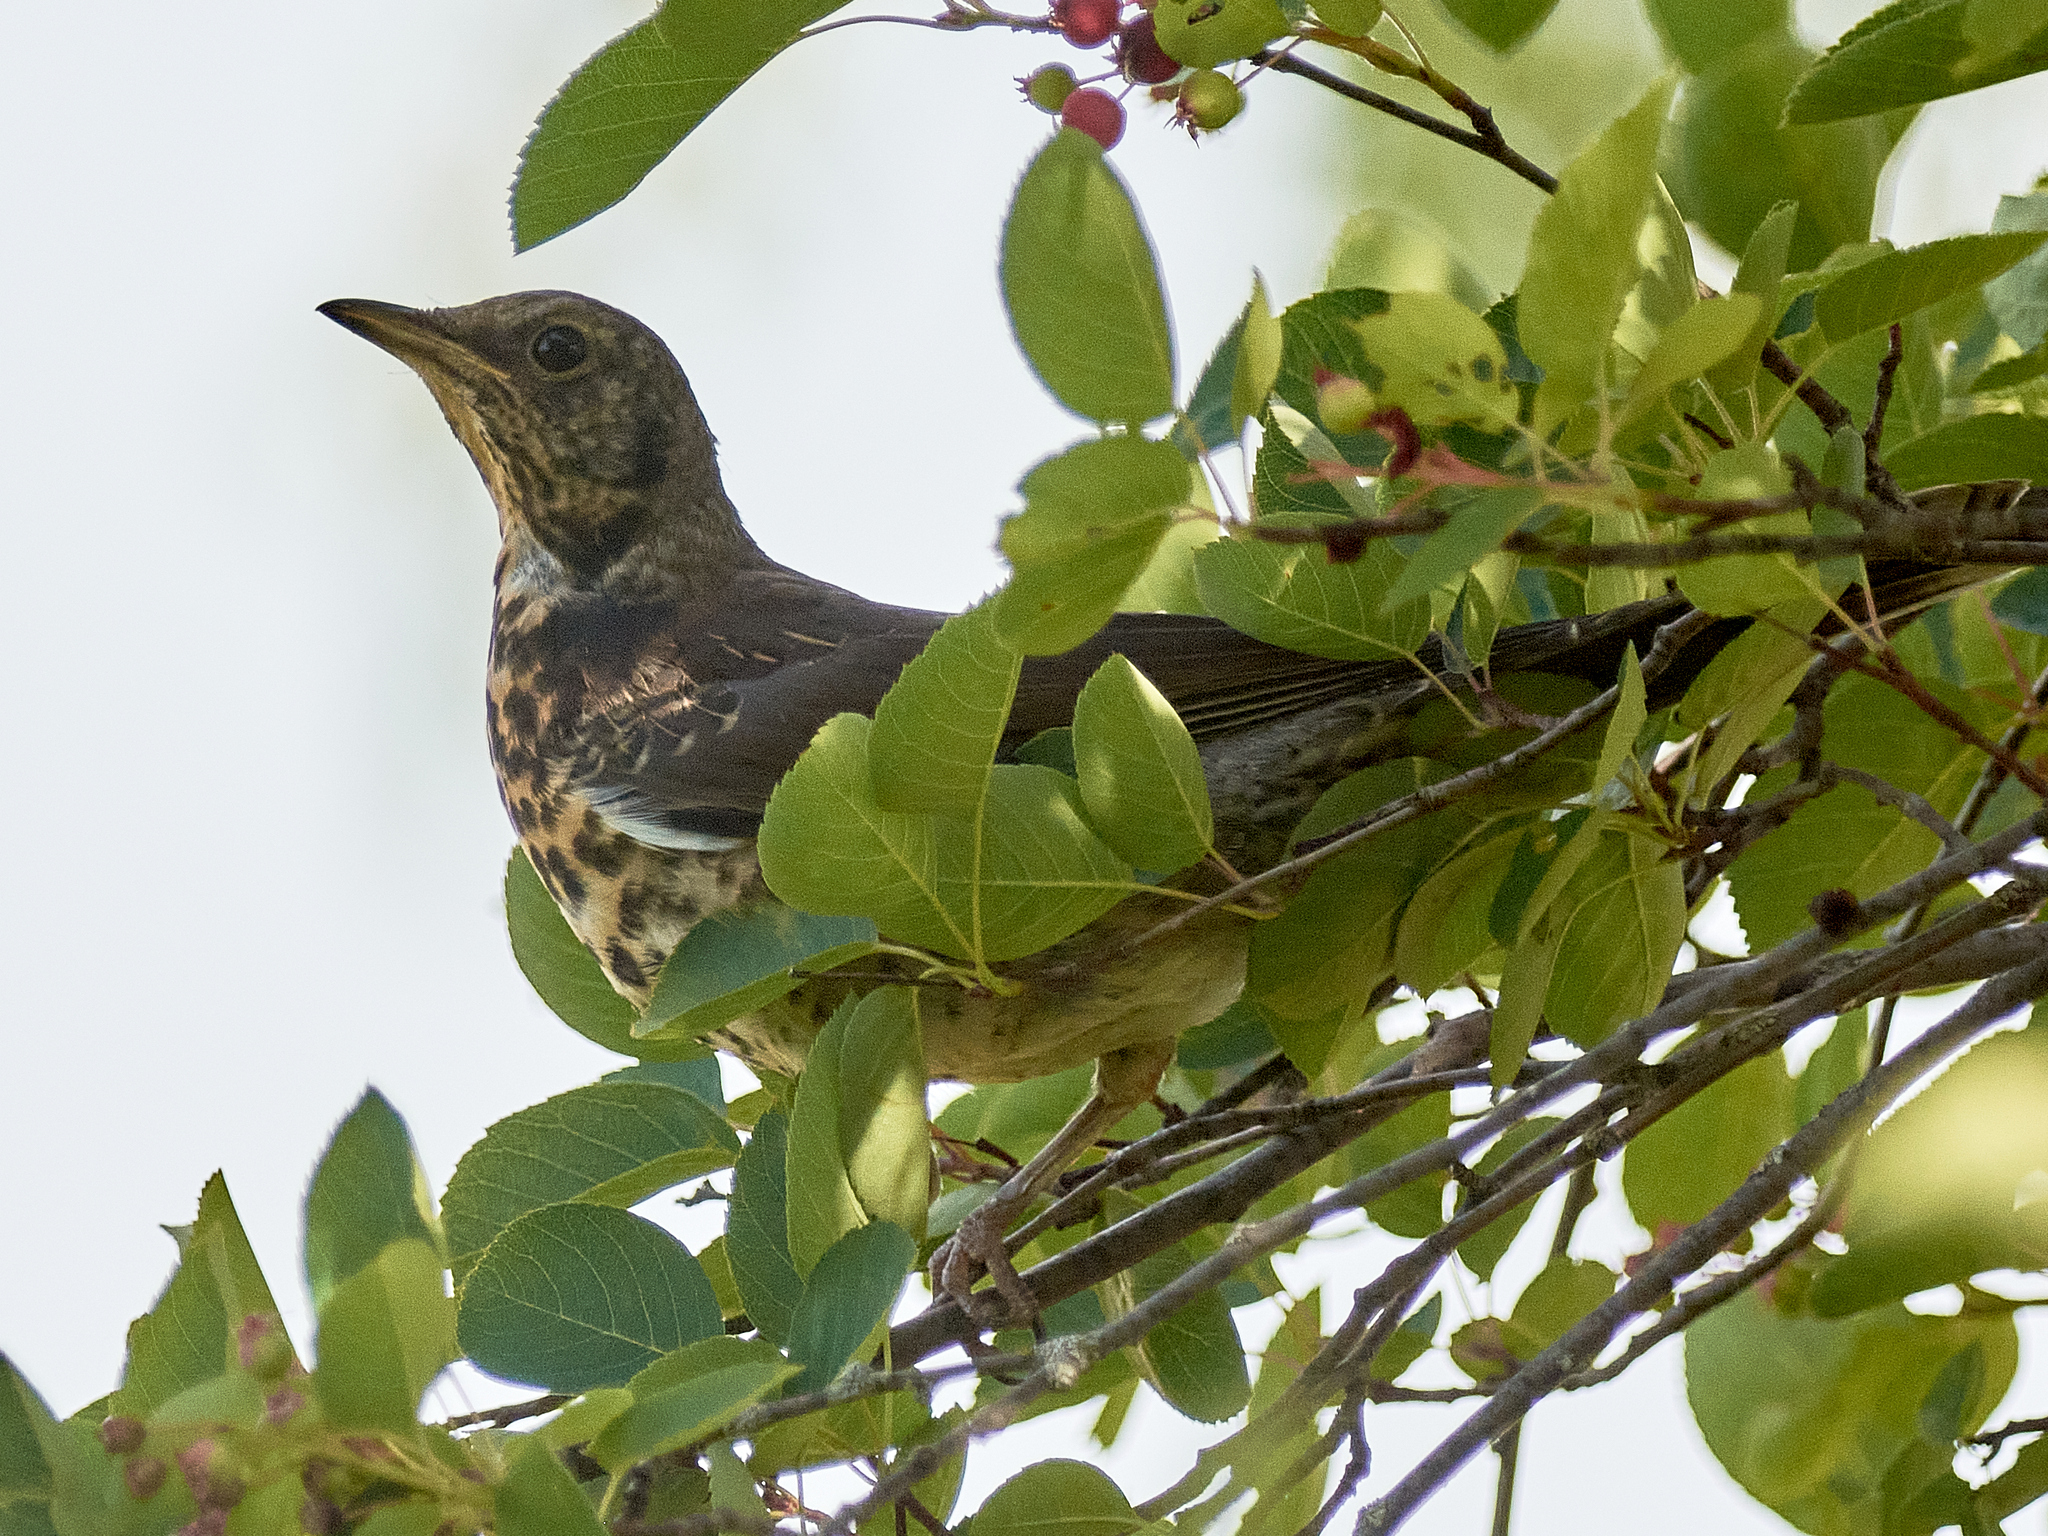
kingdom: Animalia
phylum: Chordata
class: Aves
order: Passeriformes
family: Turdidae
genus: Turdus
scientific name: Turdus pilaris
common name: Fieldfare
